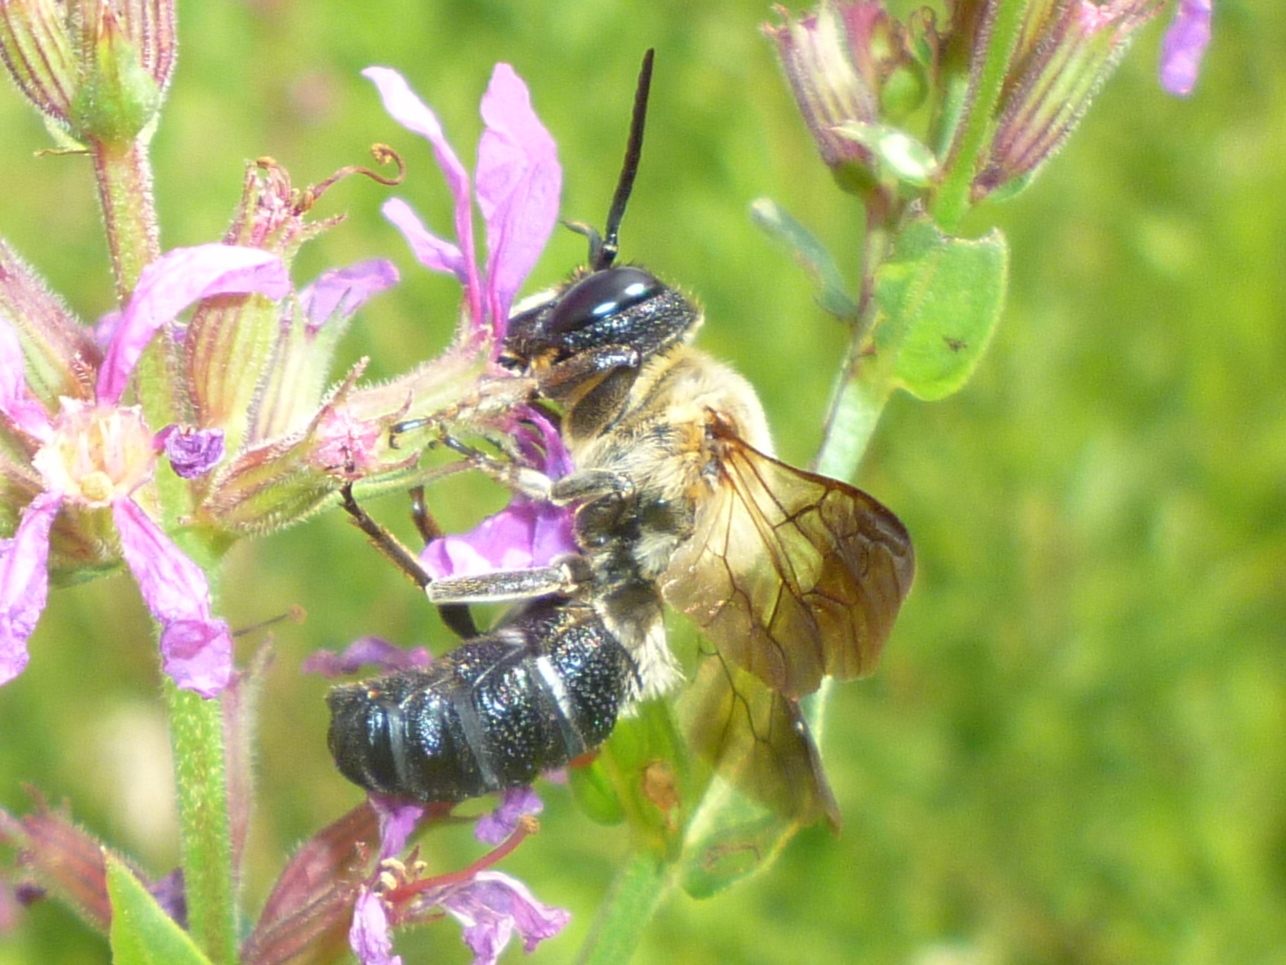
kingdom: Animalia
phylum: Arthropoda
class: Insecta
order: Hymenoptera
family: Megachilidae
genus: Megachile
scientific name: Megachile sculpturalis
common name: Sculptured resin bee
